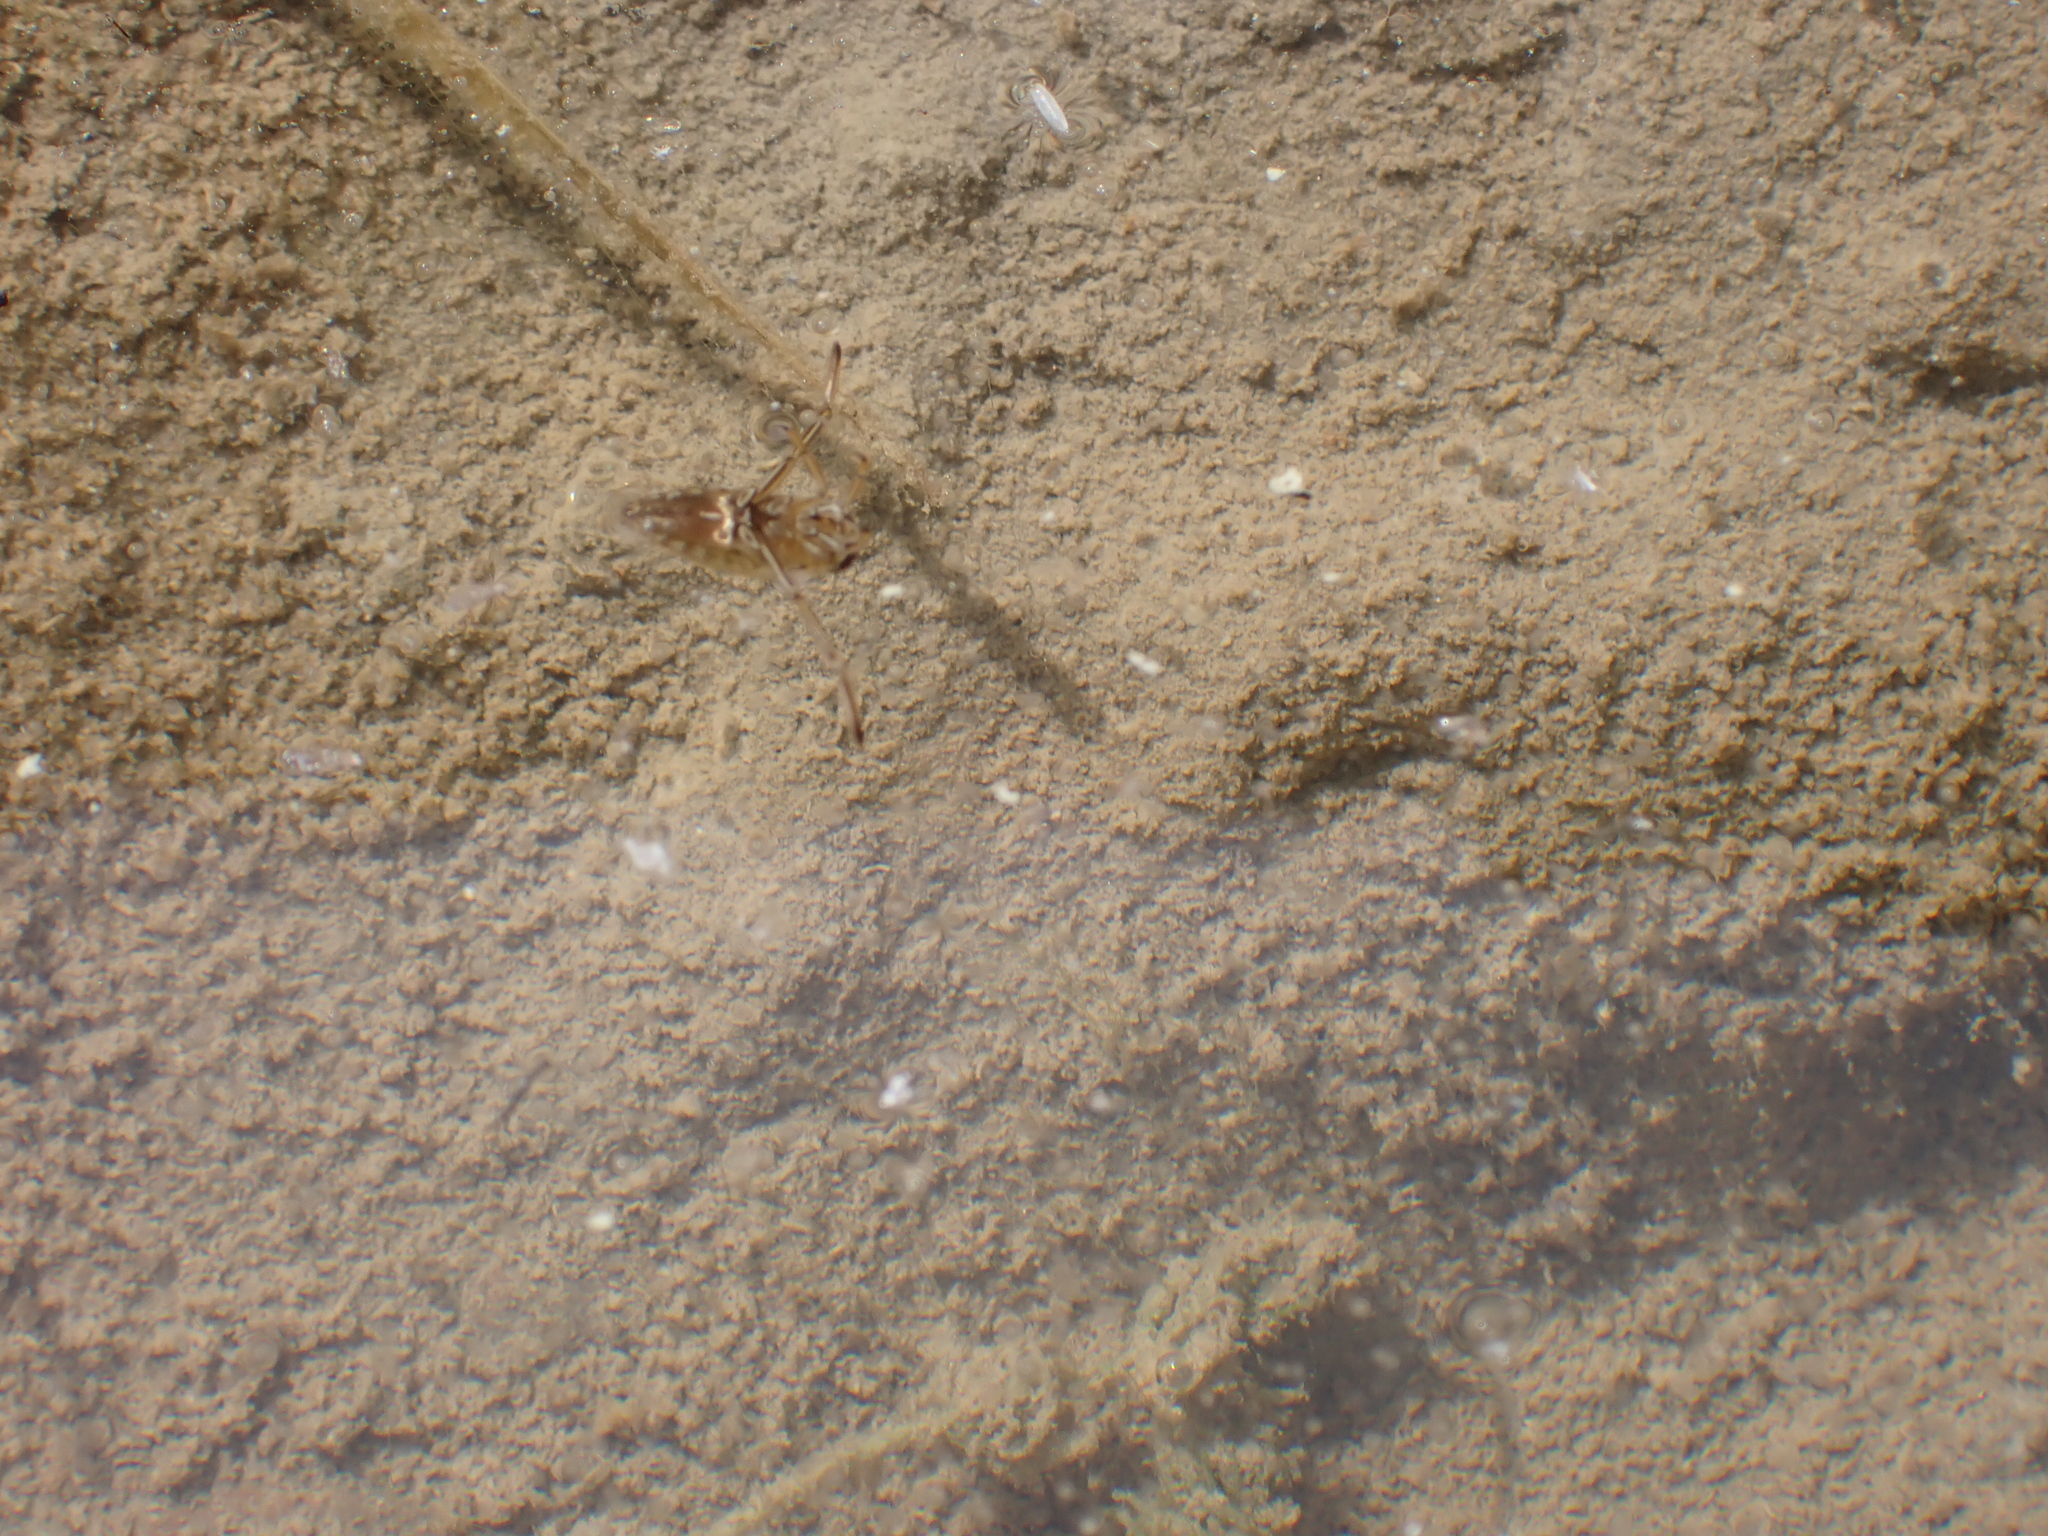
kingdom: Animalia
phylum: Arthropoda
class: Insecta
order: Hemiptera
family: Notonectidae
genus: Notonecta
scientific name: Notonecta
